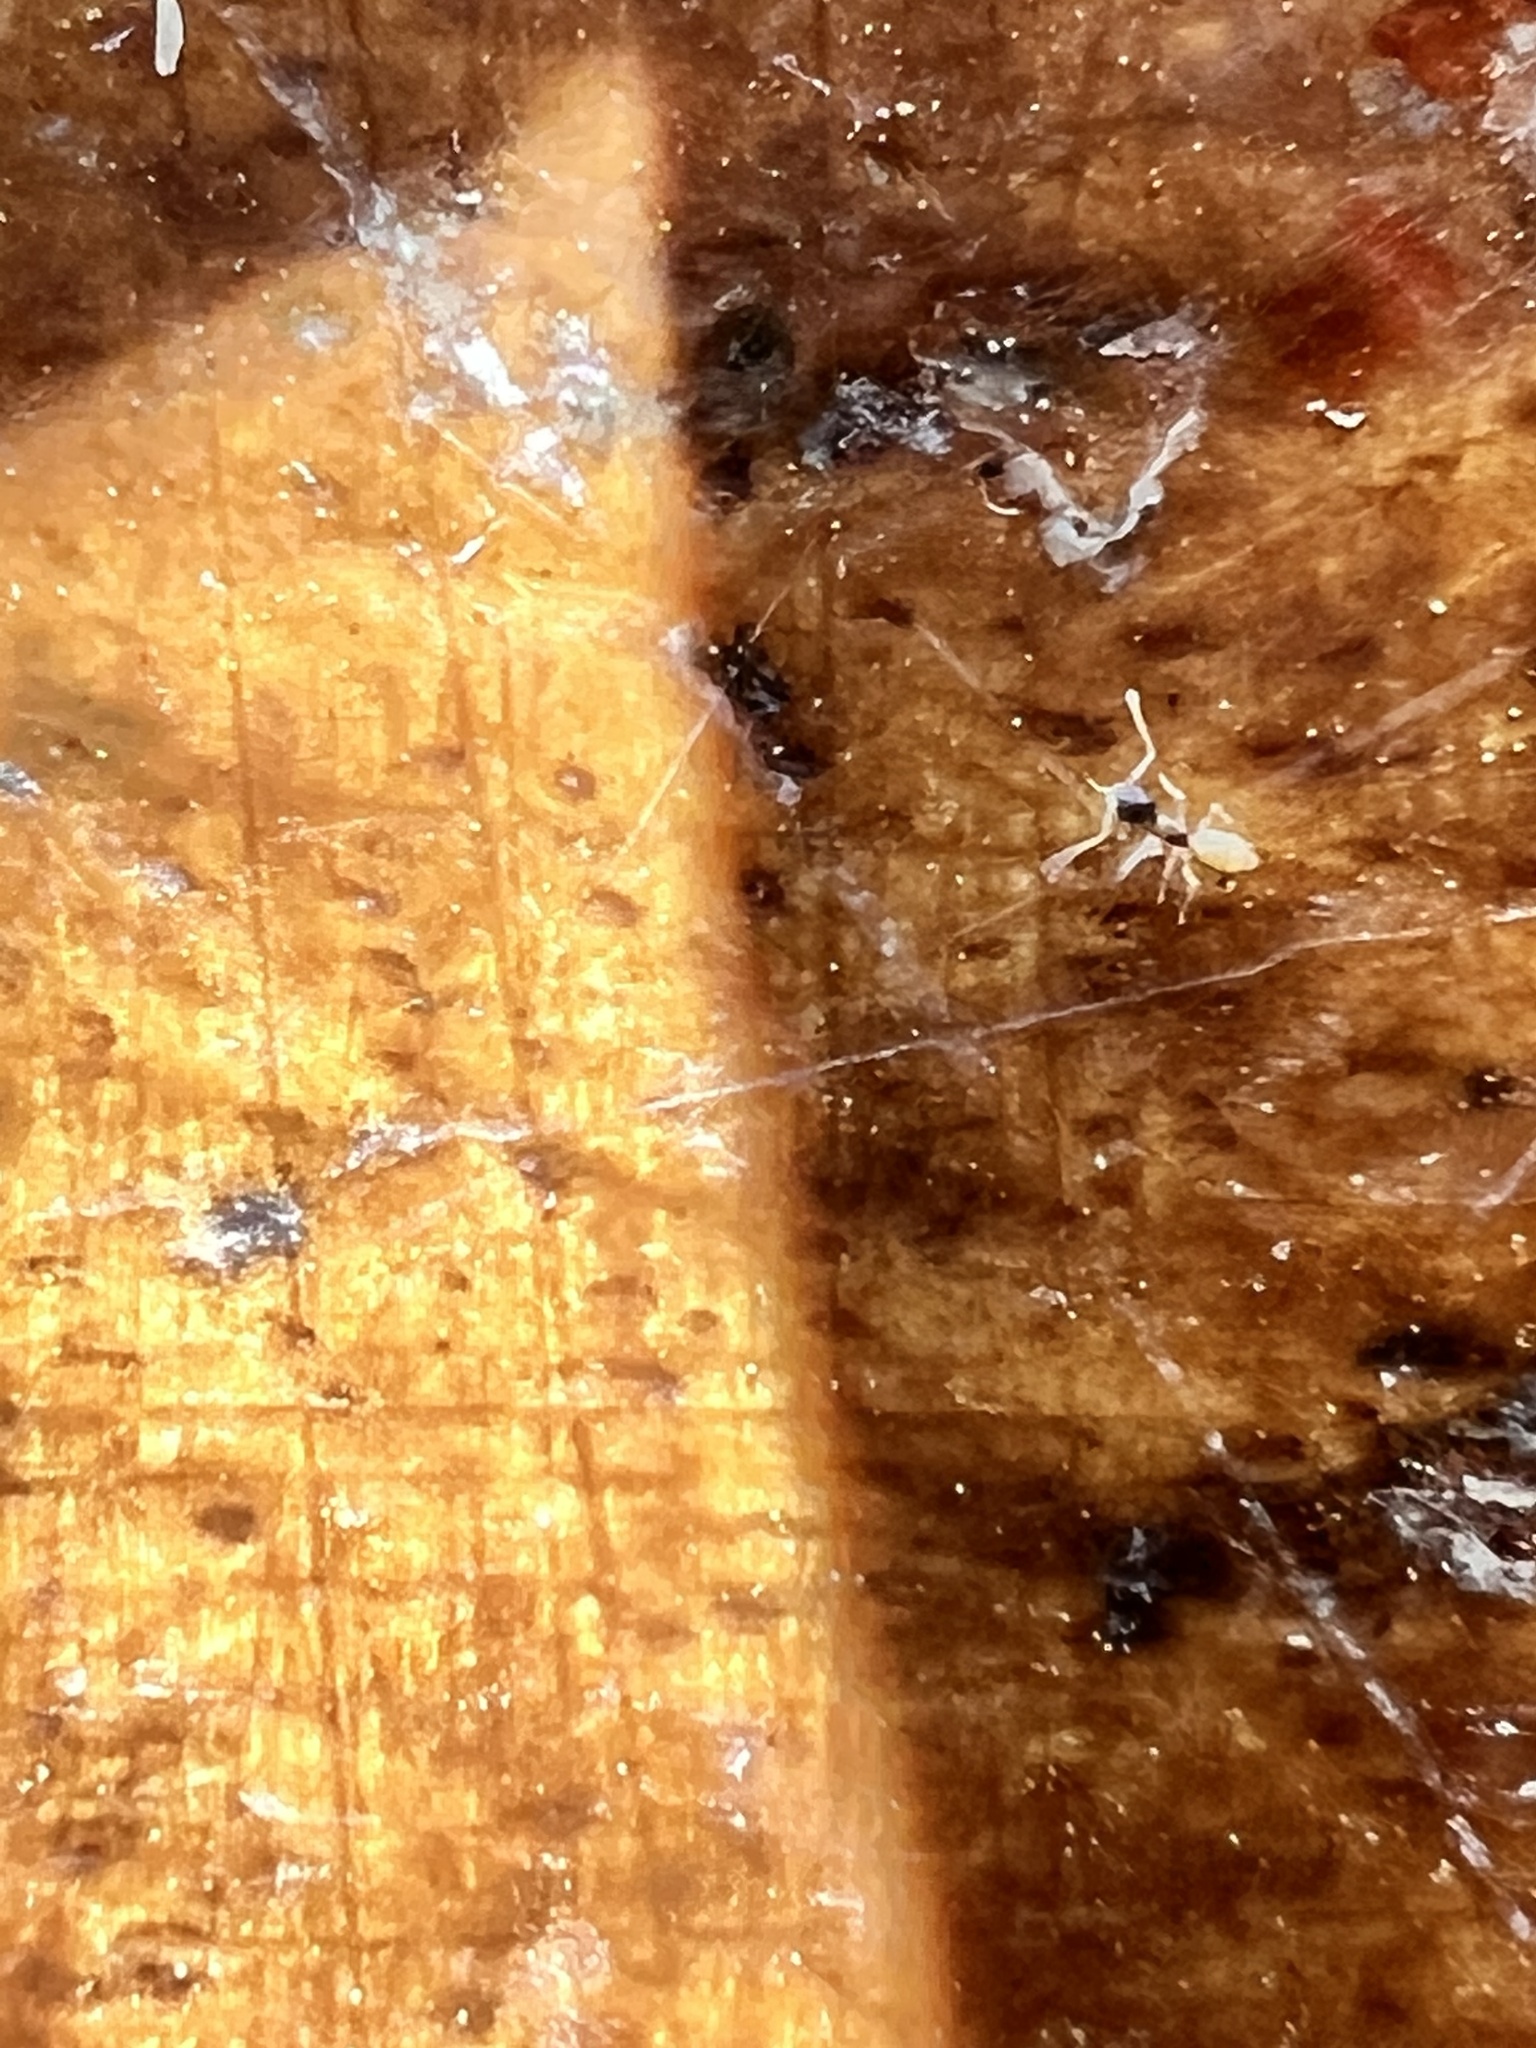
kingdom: Animalia
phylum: Arthropoda
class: Insecta
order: Hymenoptera
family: Formicidae
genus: Tapinoma
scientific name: Tapinoma melanocephalum
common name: Ghost ant
